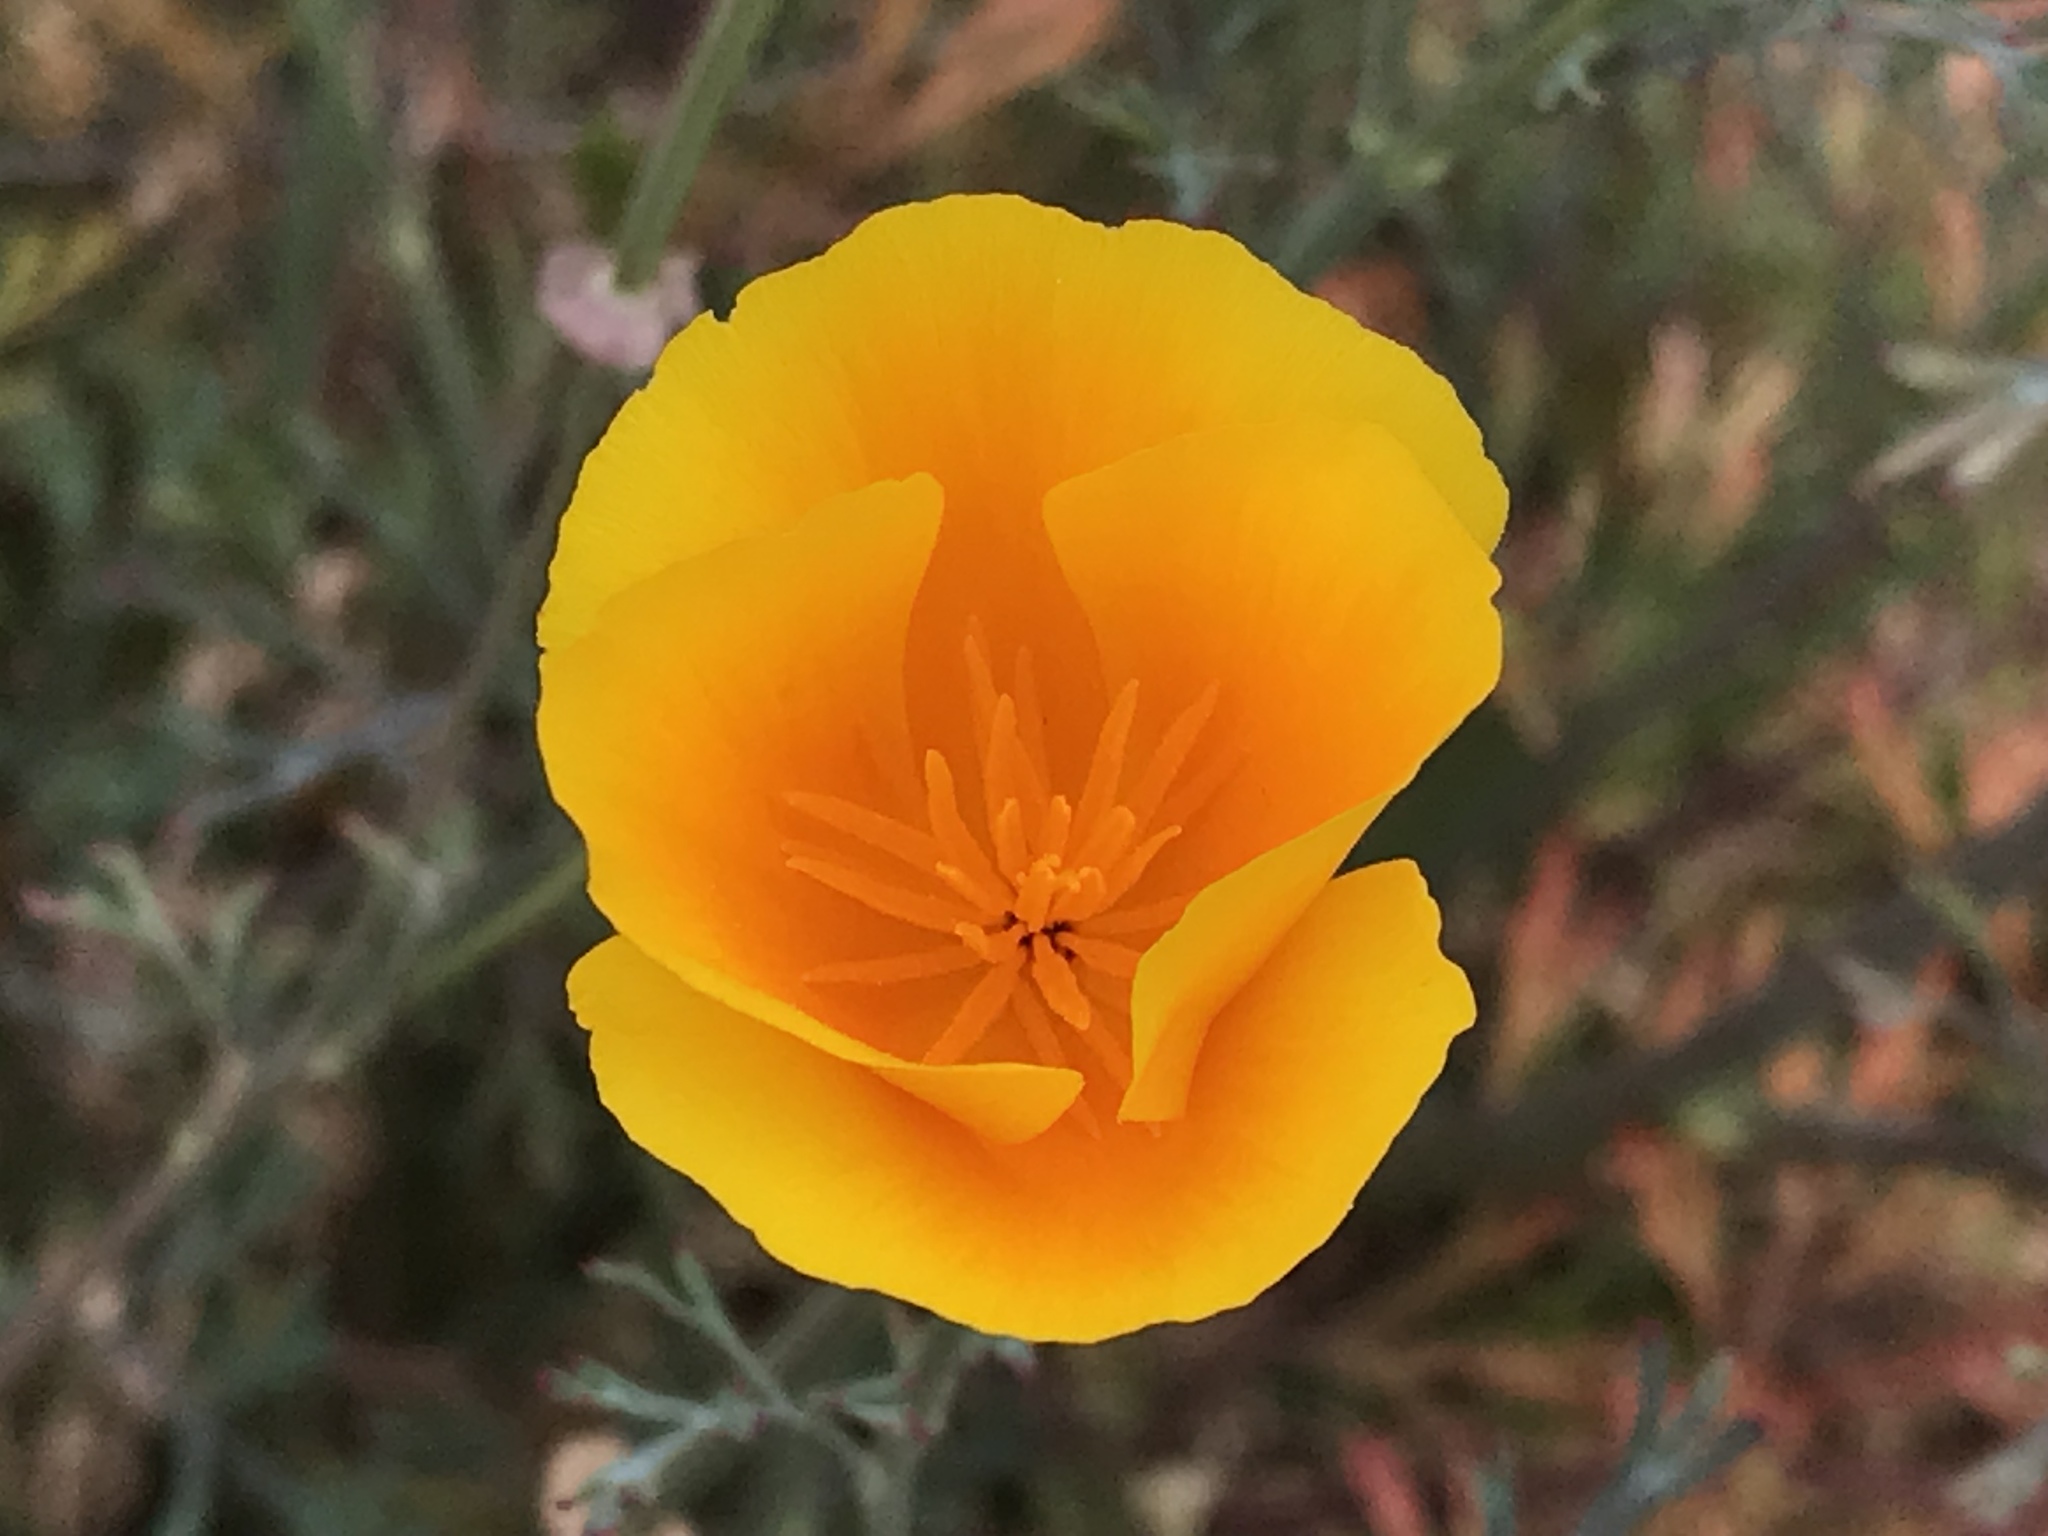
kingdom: Plantae
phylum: Tracheophyta
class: Magnoliopsida
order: Ranunculales
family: Papaveraceae
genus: Eschscholzia
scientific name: Eschscholzia californica
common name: California poppy
